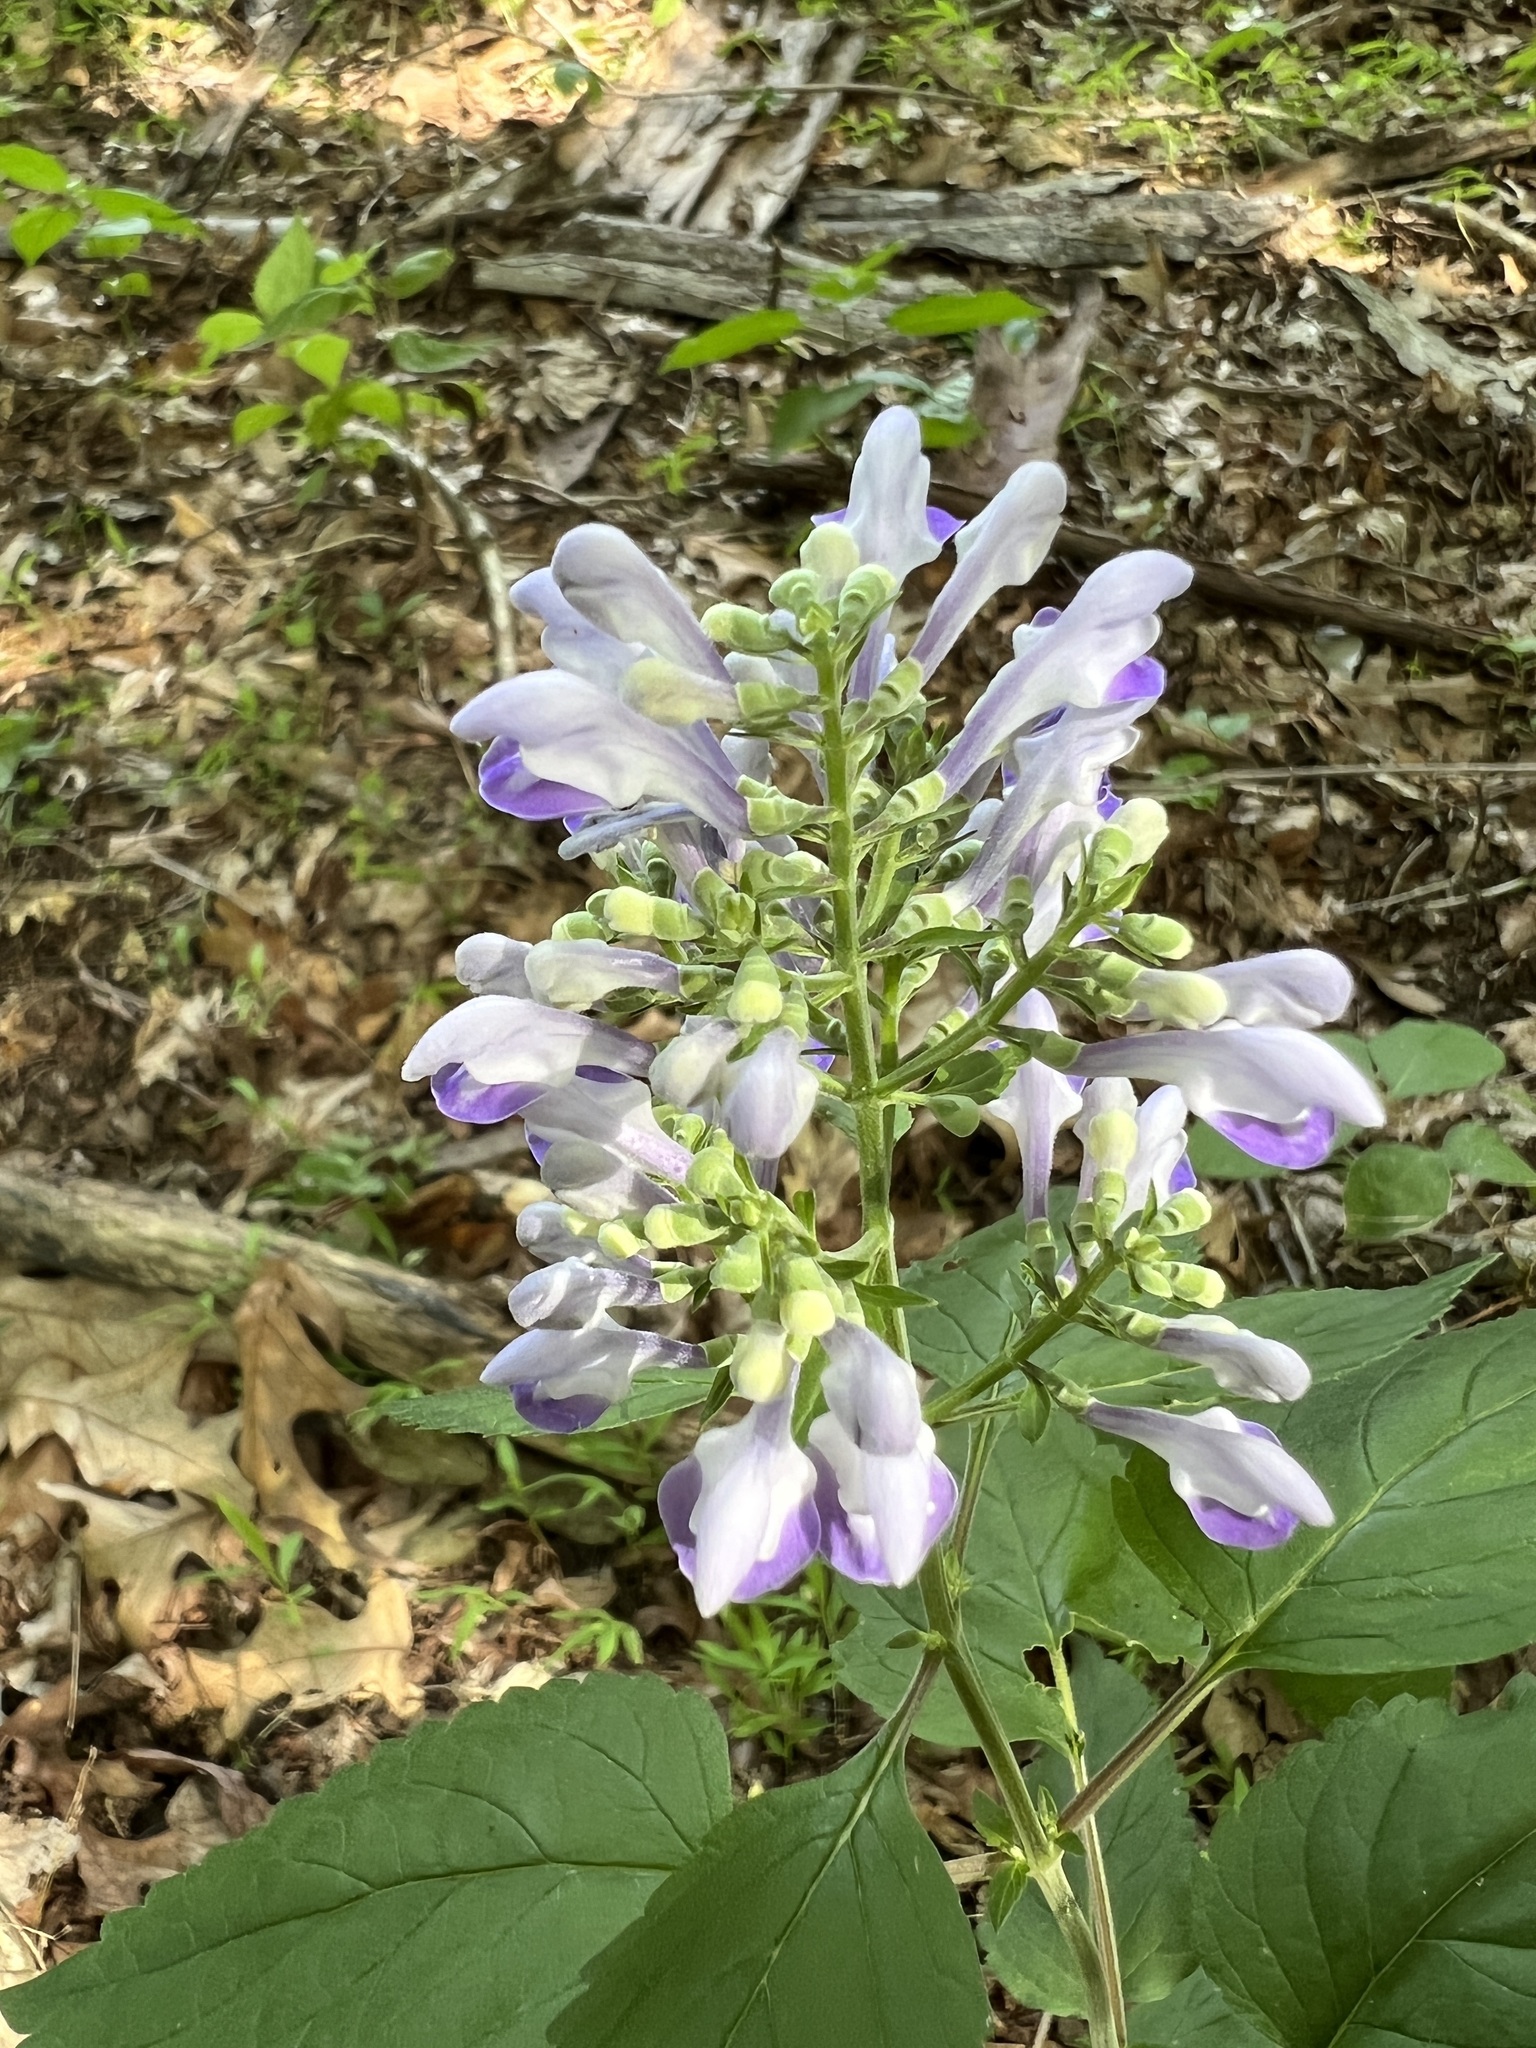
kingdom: Plantae
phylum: Tracheophyta
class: Magnoliopsida
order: Lamiales
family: Lamiaceae
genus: Scutellaria
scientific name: Scutellaria incana
